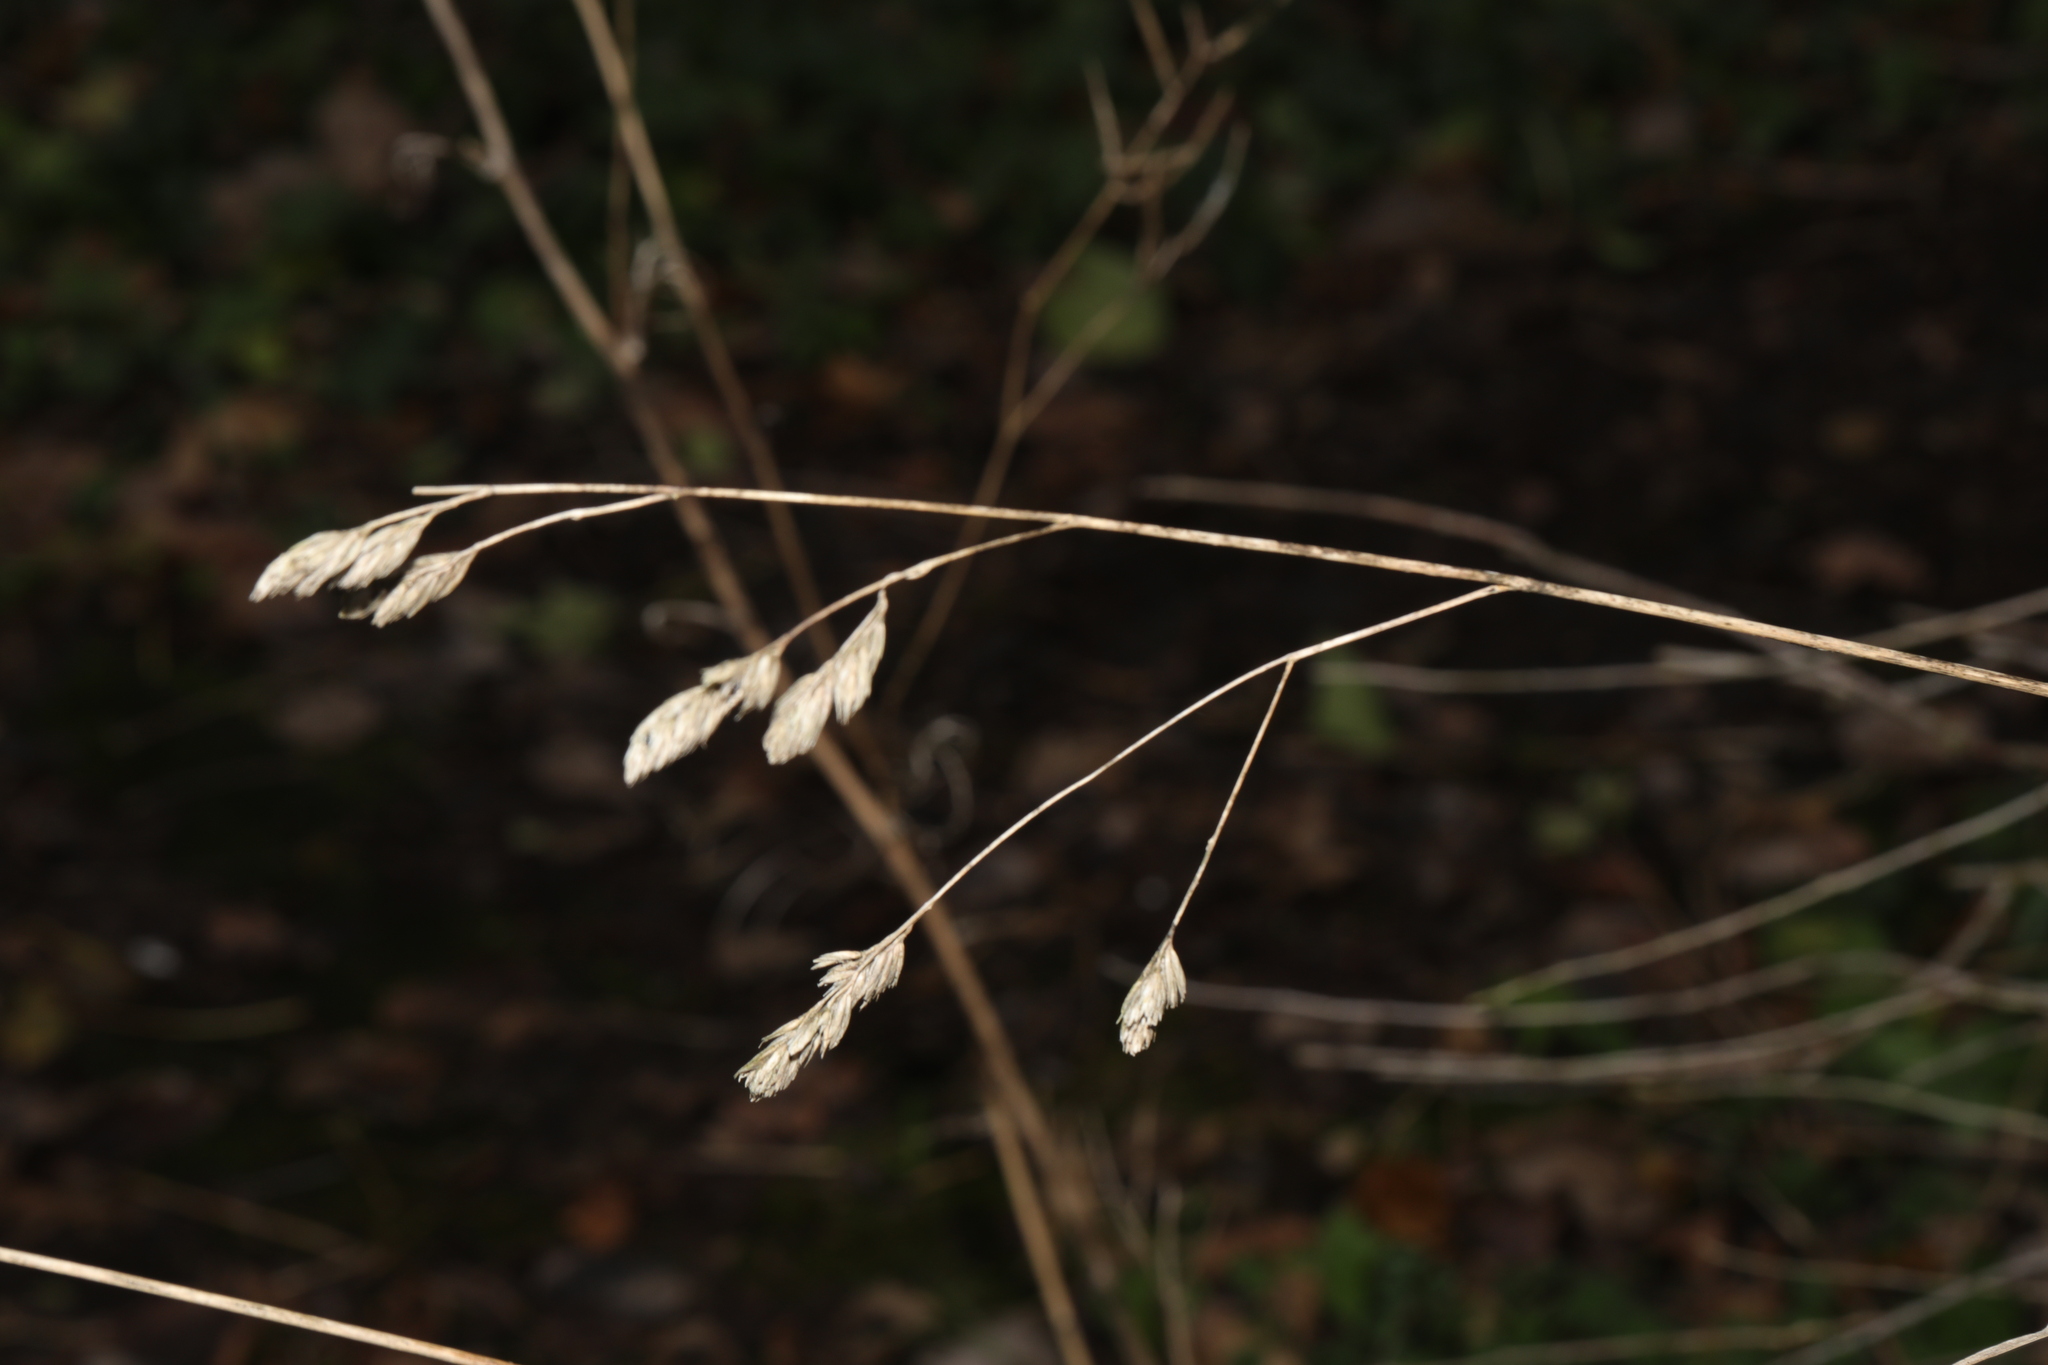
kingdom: Plantae
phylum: Tracheophyta
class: Liliopsida
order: Poales
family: Poaceae
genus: Dactylis
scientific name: Dactylis glomerata
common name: Orchardgrass
